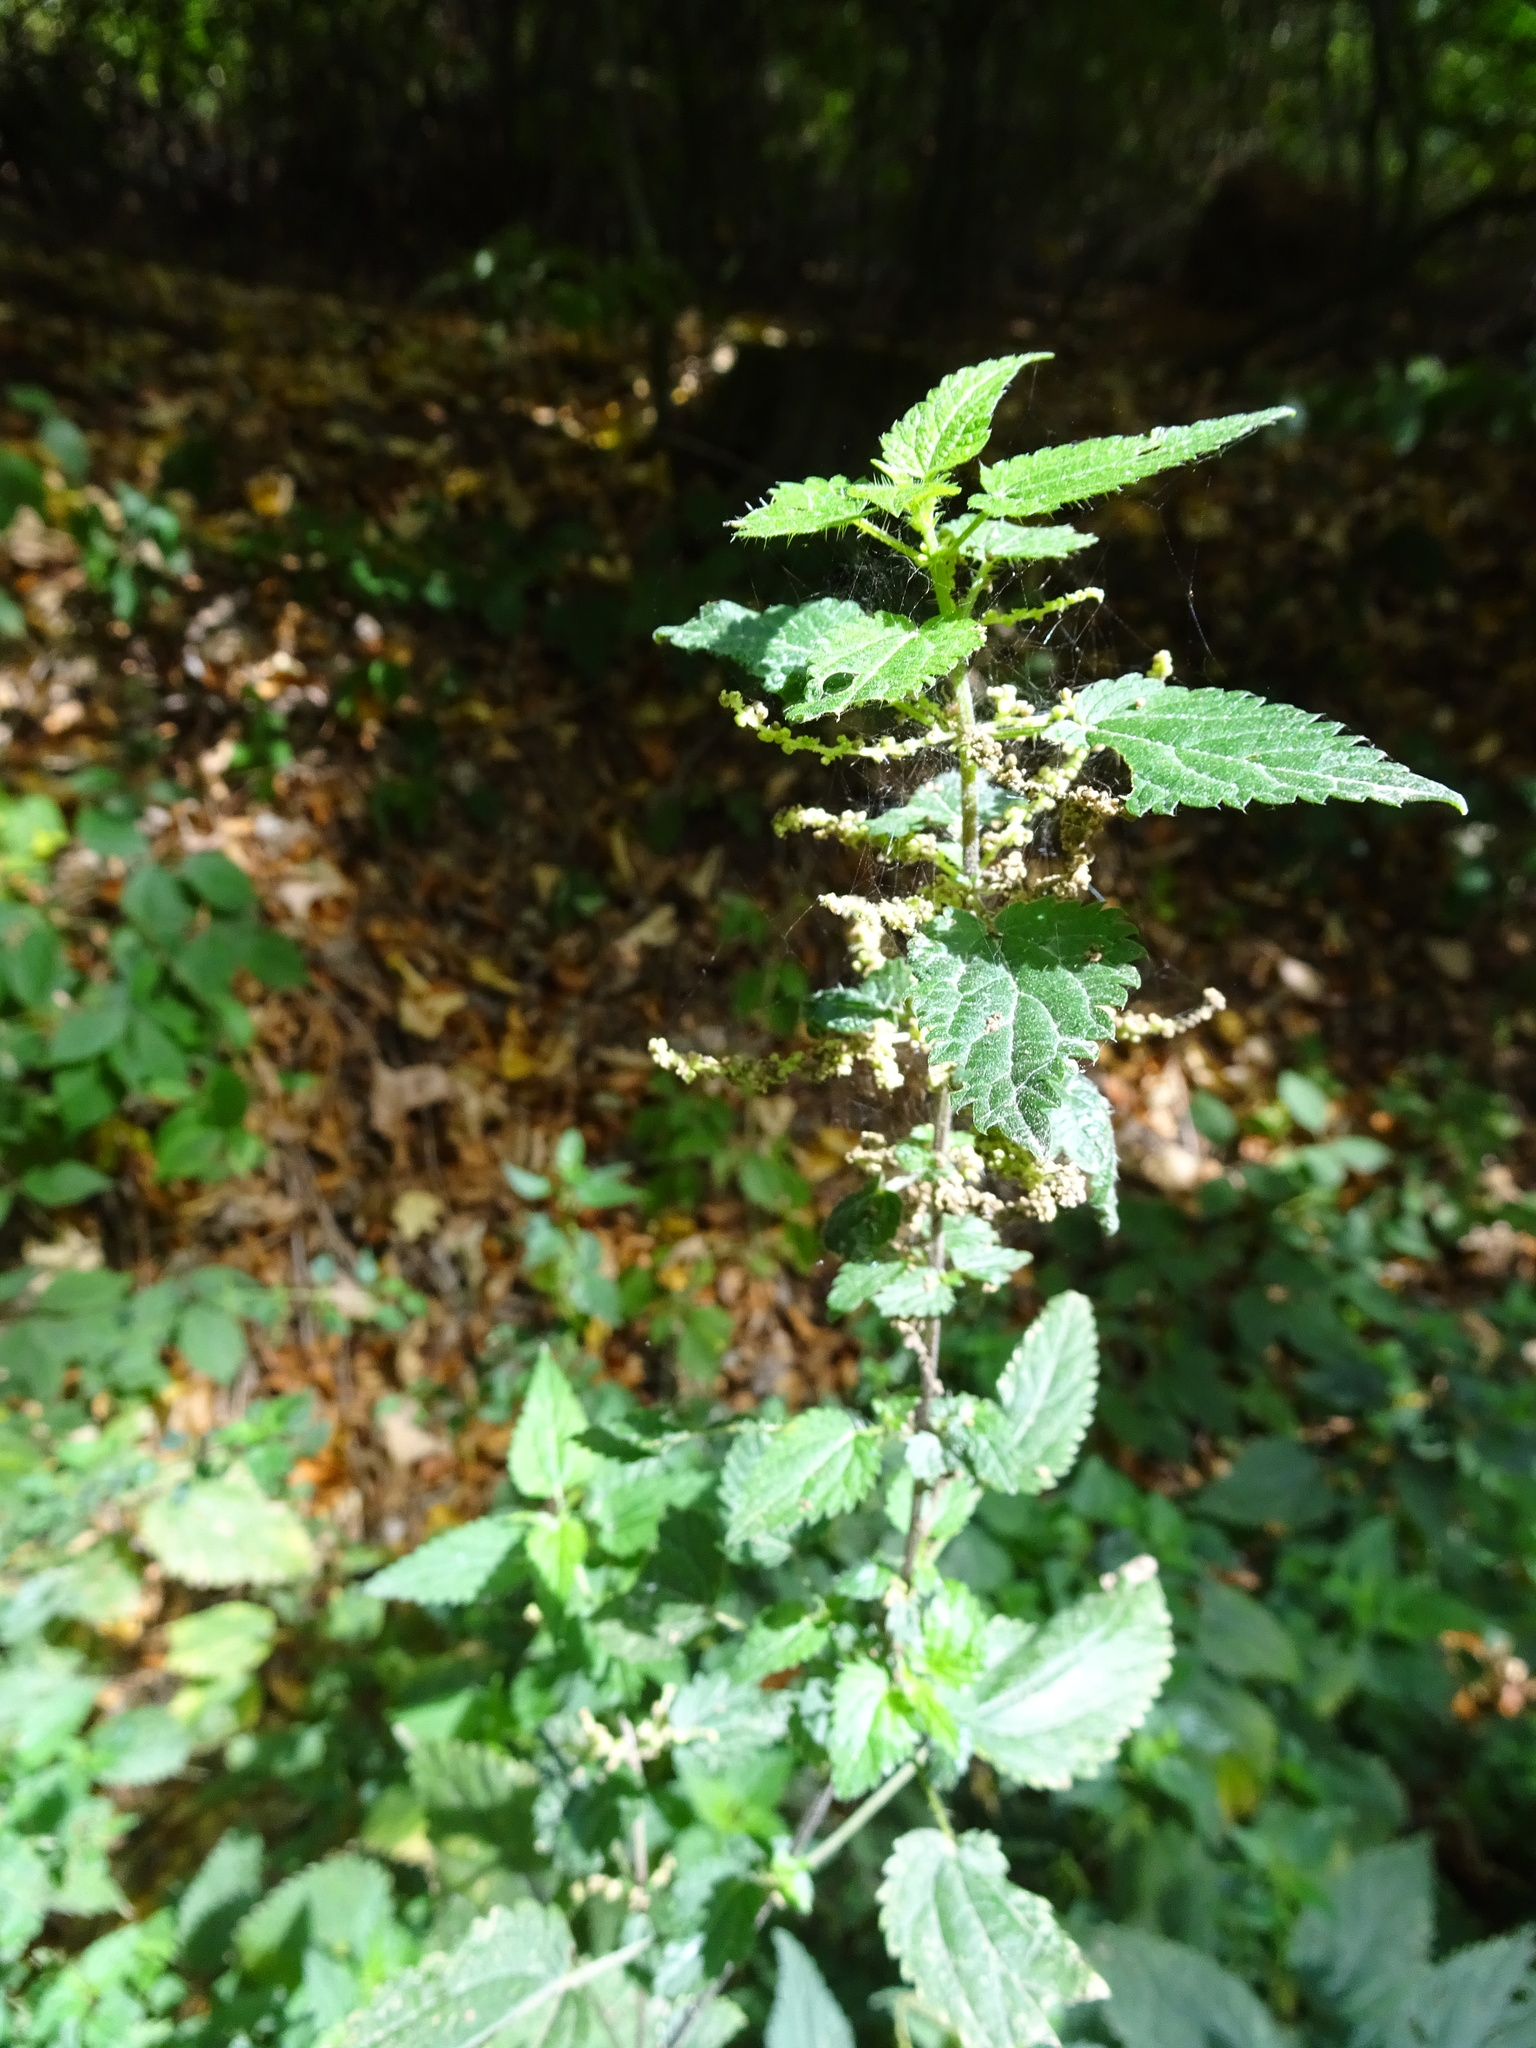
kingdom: Plantae
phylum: Tracheophyta
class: Magnoliopsida
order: Rosales
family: Urticaceae
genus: Urtica
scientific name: Urtica dioica
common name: Common nettle
